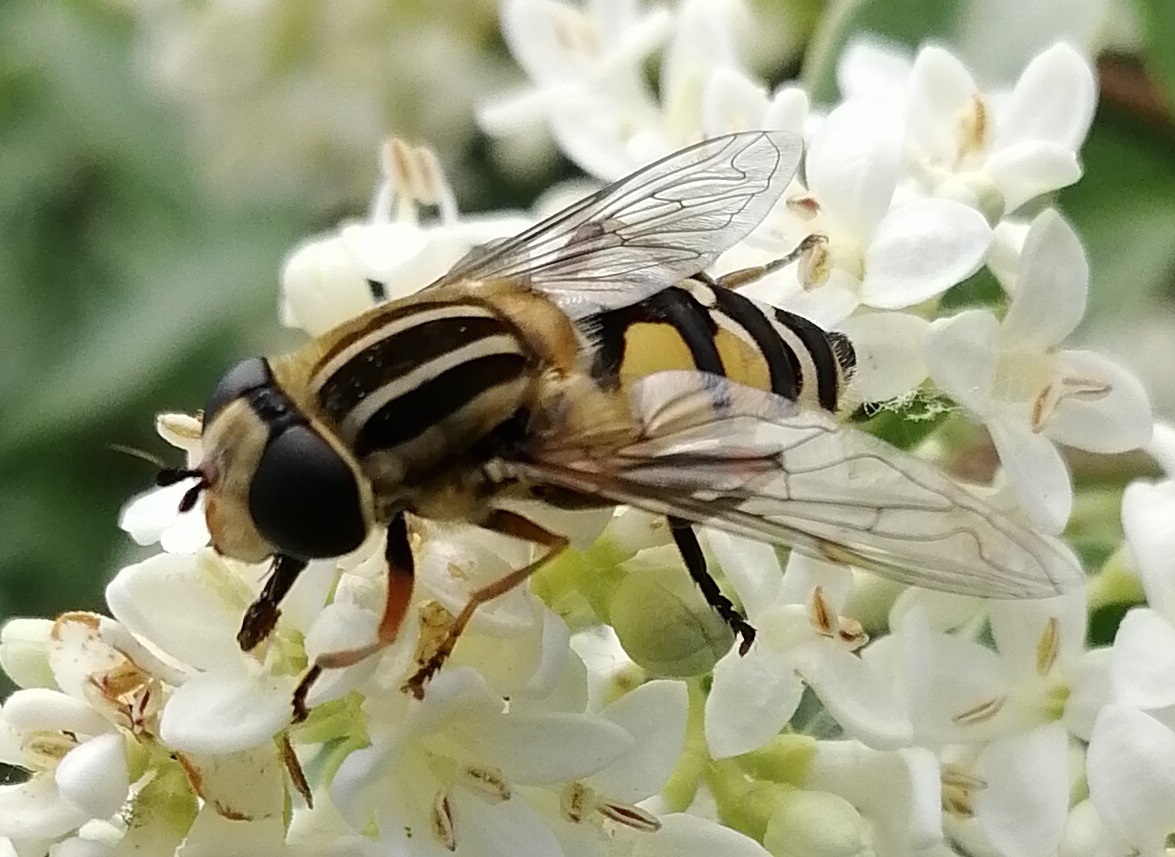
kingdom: Animalia
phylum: Arthropoda
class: Insecta
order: Diptera
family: Syrphidae
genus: Helophilus
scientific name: Helophilus trivittatus
